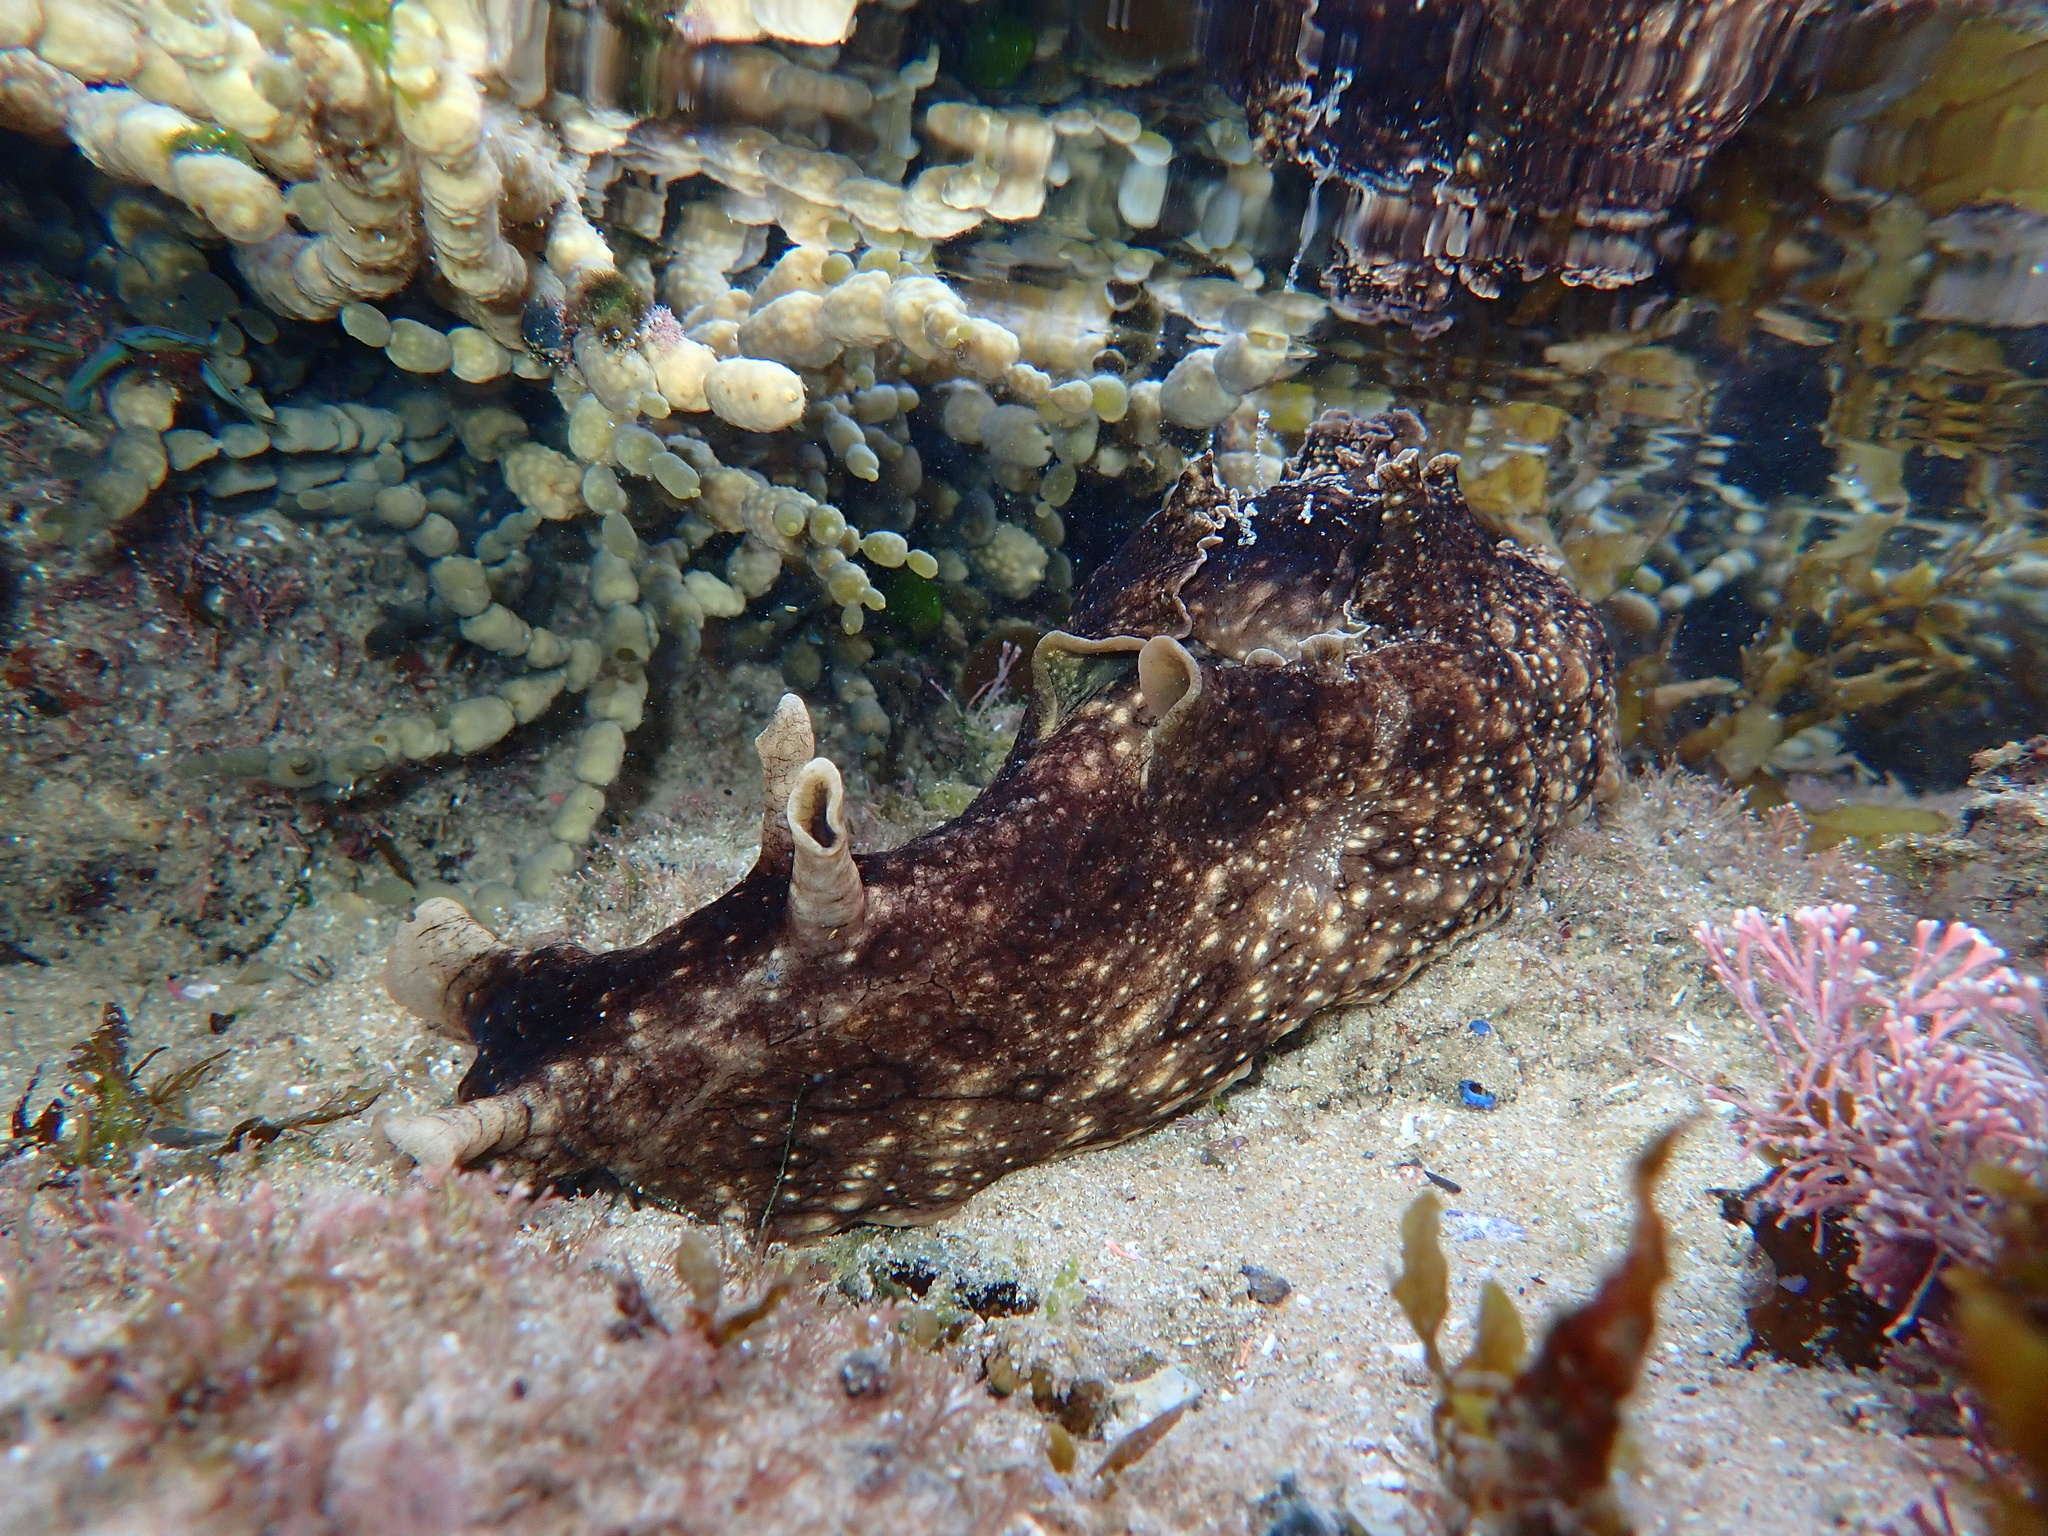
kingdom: Animalia
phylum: Mollusca
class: Gastropoda
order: Aplysiida
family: Aplysiidae
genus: Aplysia
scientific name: Aplysia argus
